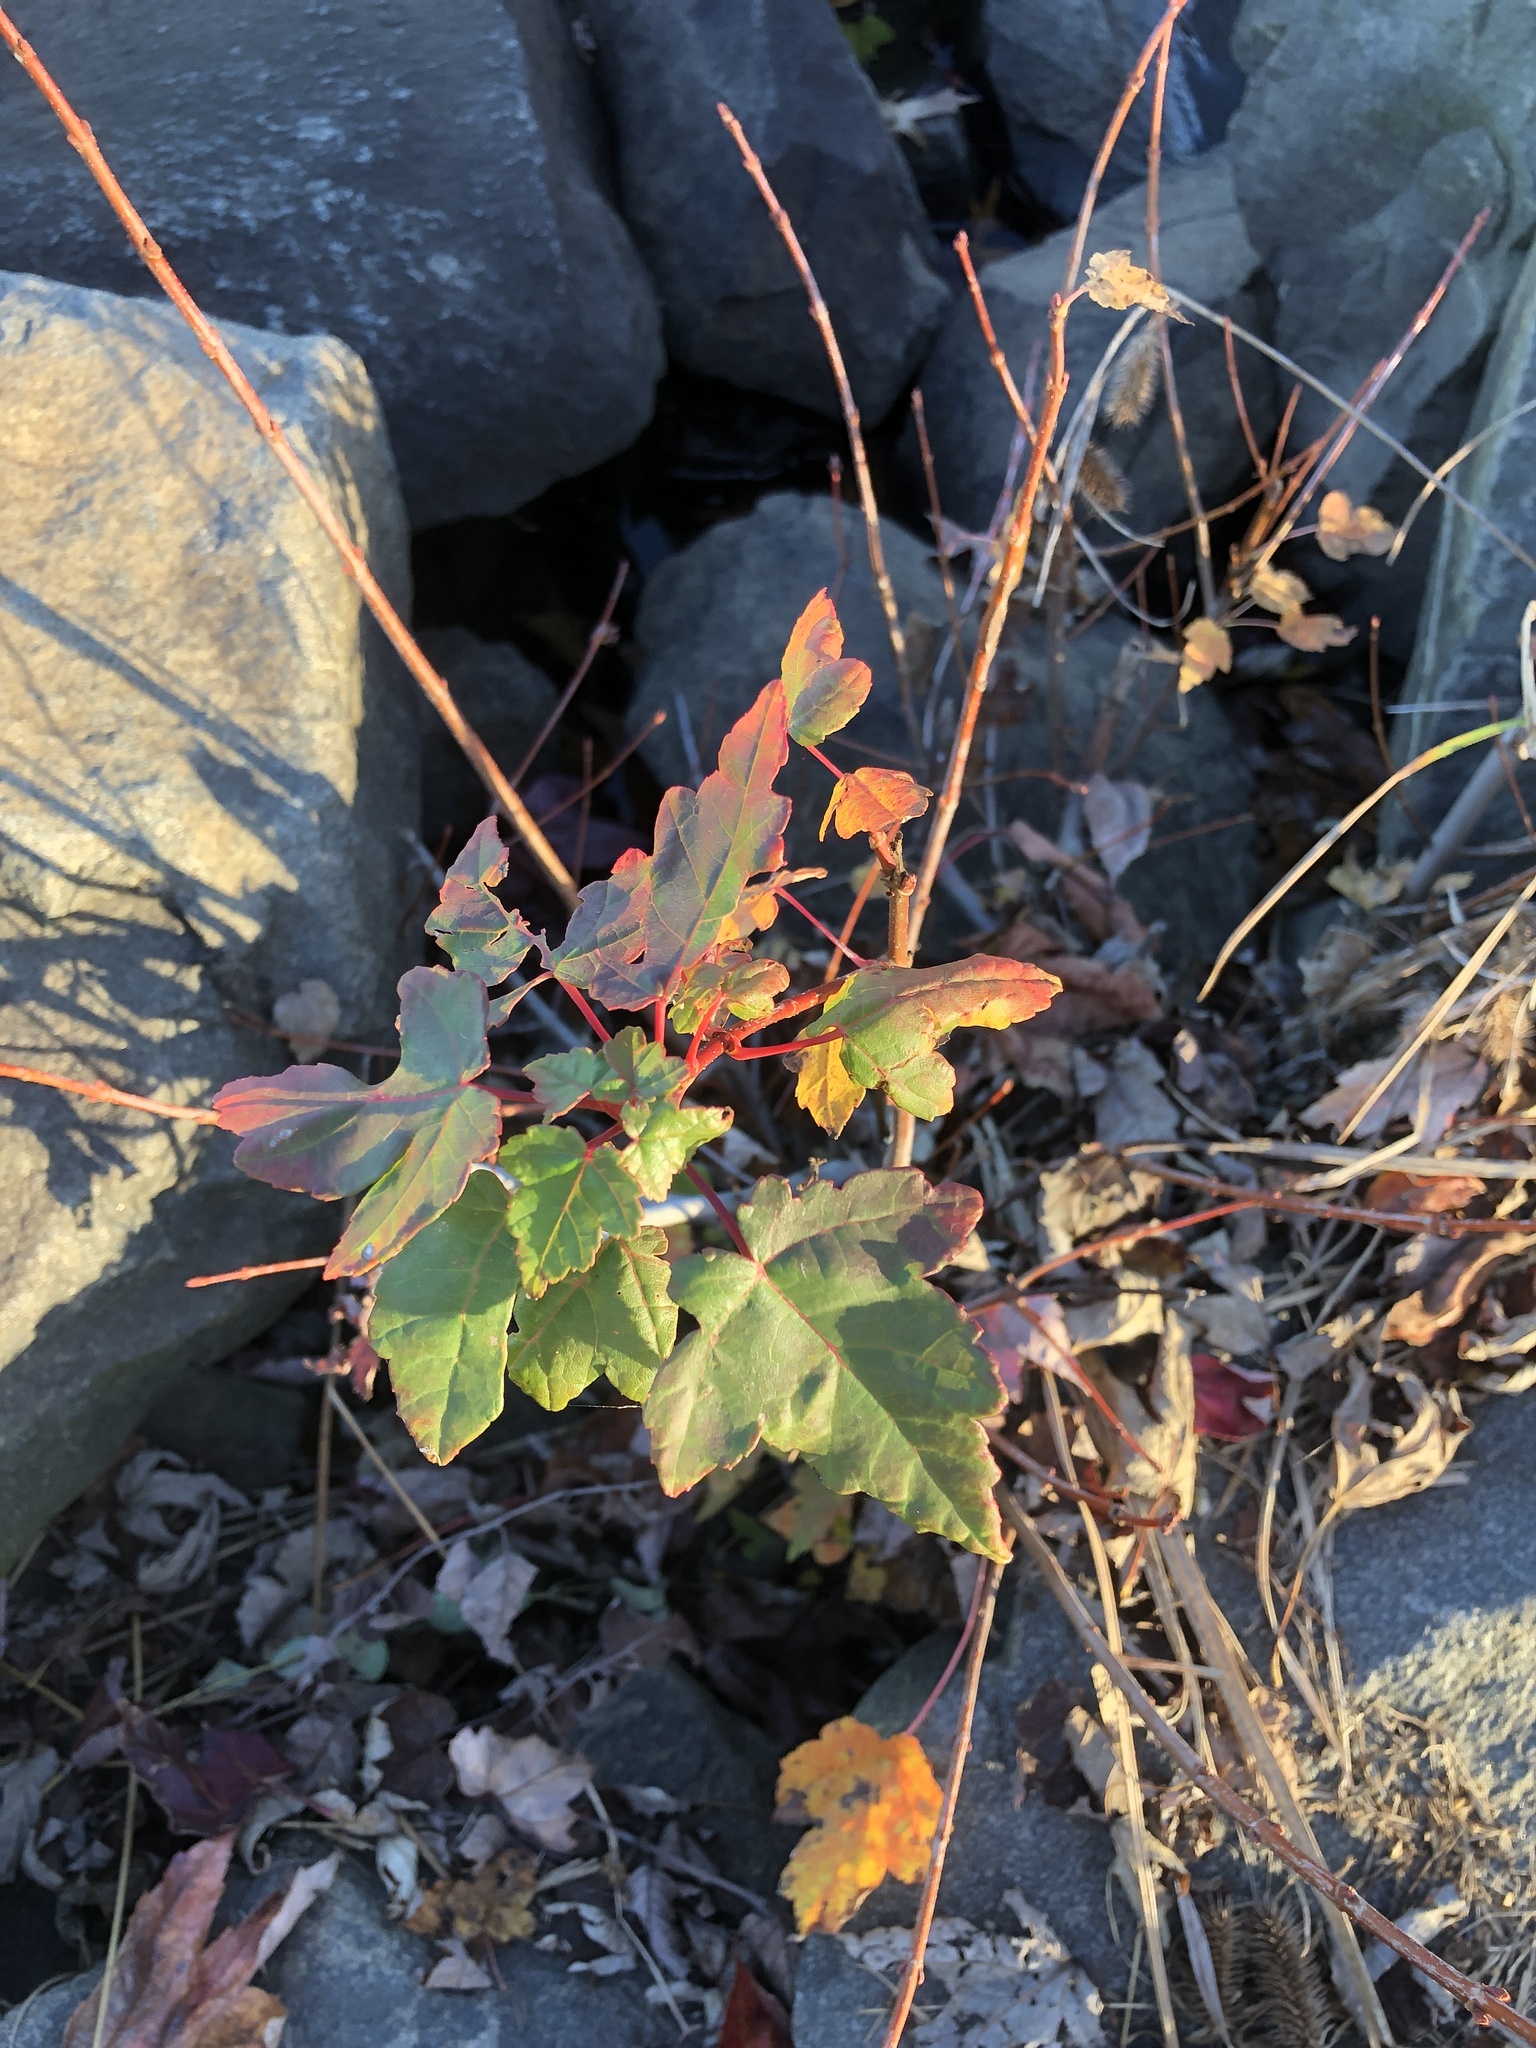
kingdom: Plantae
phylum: Tracheophyta
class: Magnoliopsida
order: Sapindales
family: Sapindaceae
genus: Acer
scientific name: Acer rubrum
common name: Red maple
